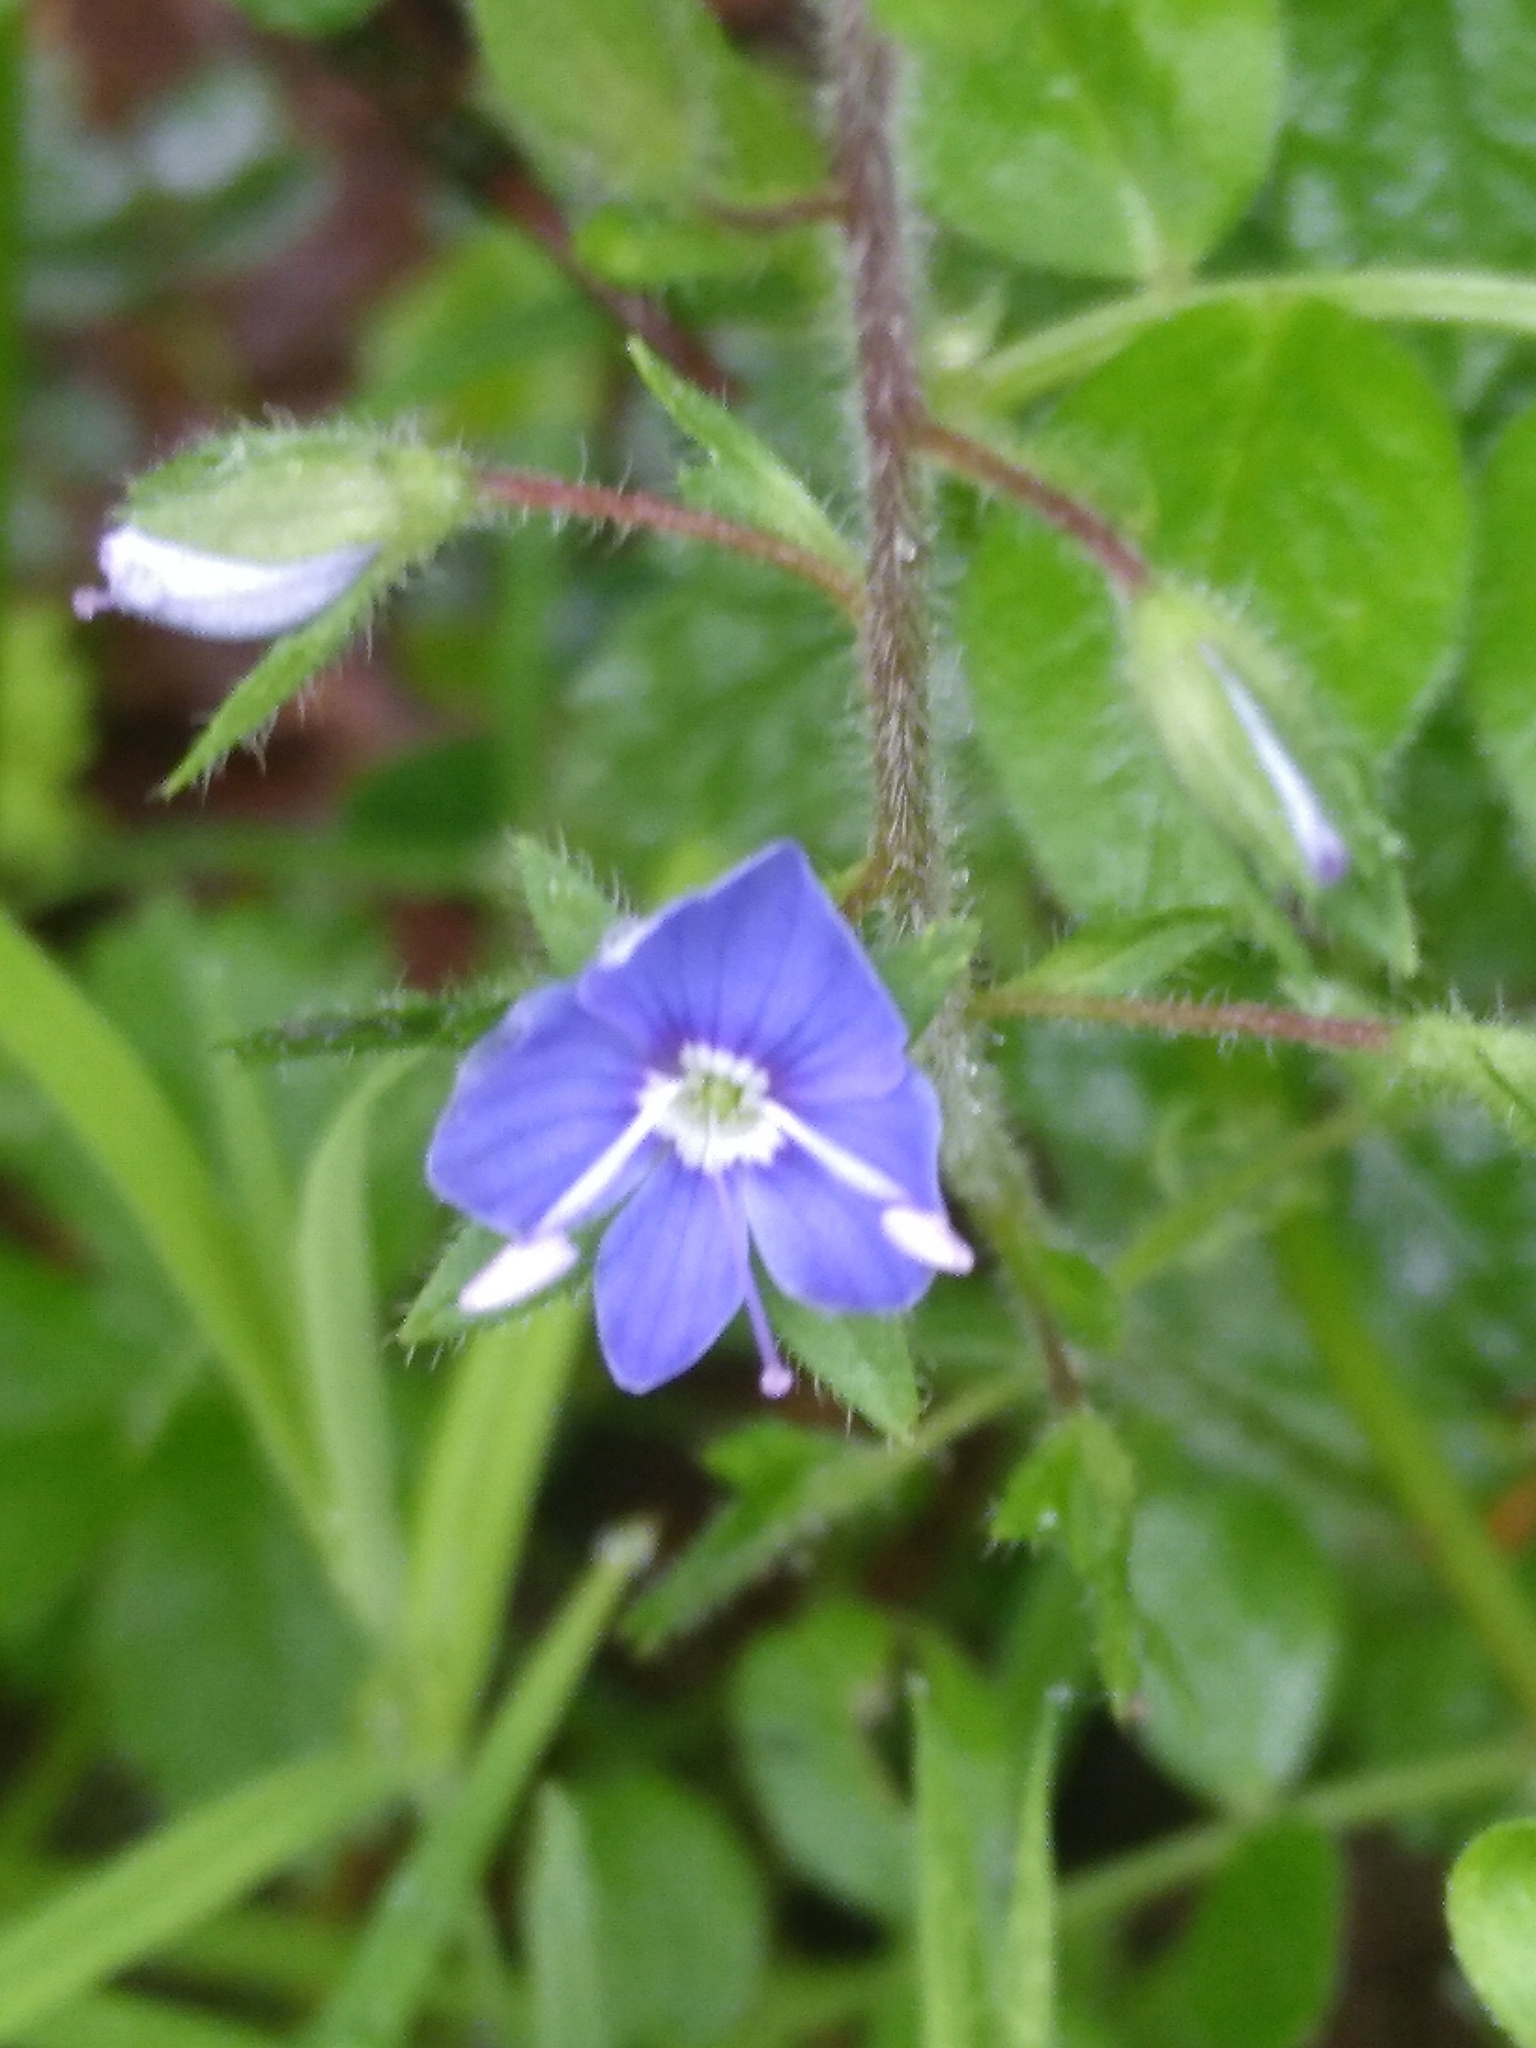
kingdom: Plantae
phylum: Tracheophyta
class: Magnoliopsida
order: Lamiales
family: Plantaginaceae
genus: Veronica
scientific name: Veronica chamaedrys
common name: Germander speedwell
